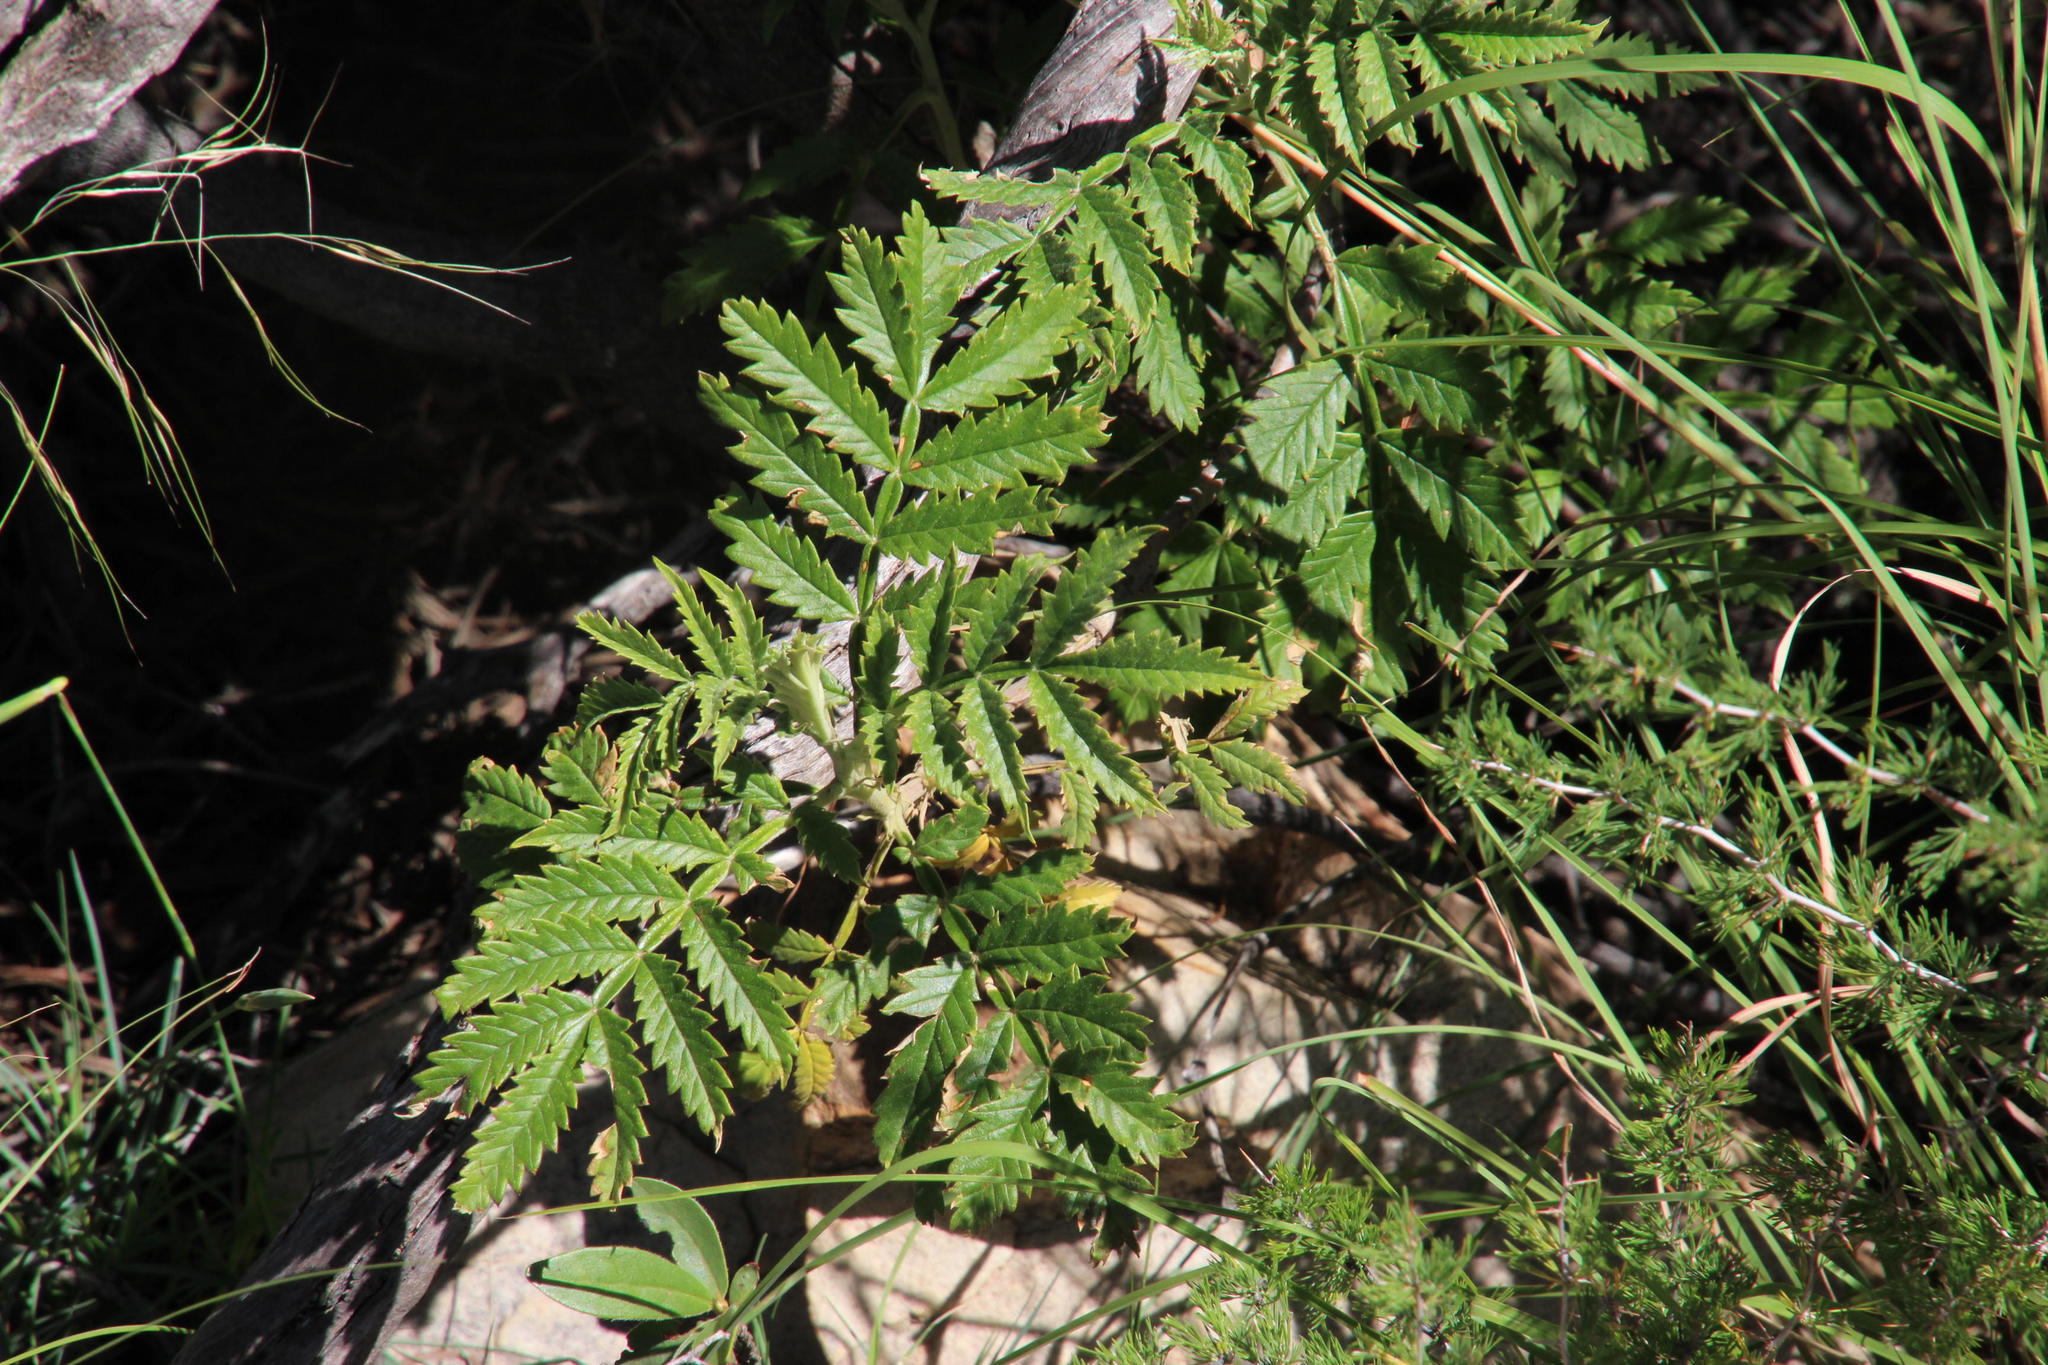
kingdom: Plantae
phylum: Tracheophyta
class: Magnoliopsida
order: Geraniales
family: Melianthaceae
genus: Melianthus
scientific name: Melianthus comosus
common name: Touch-me-not
